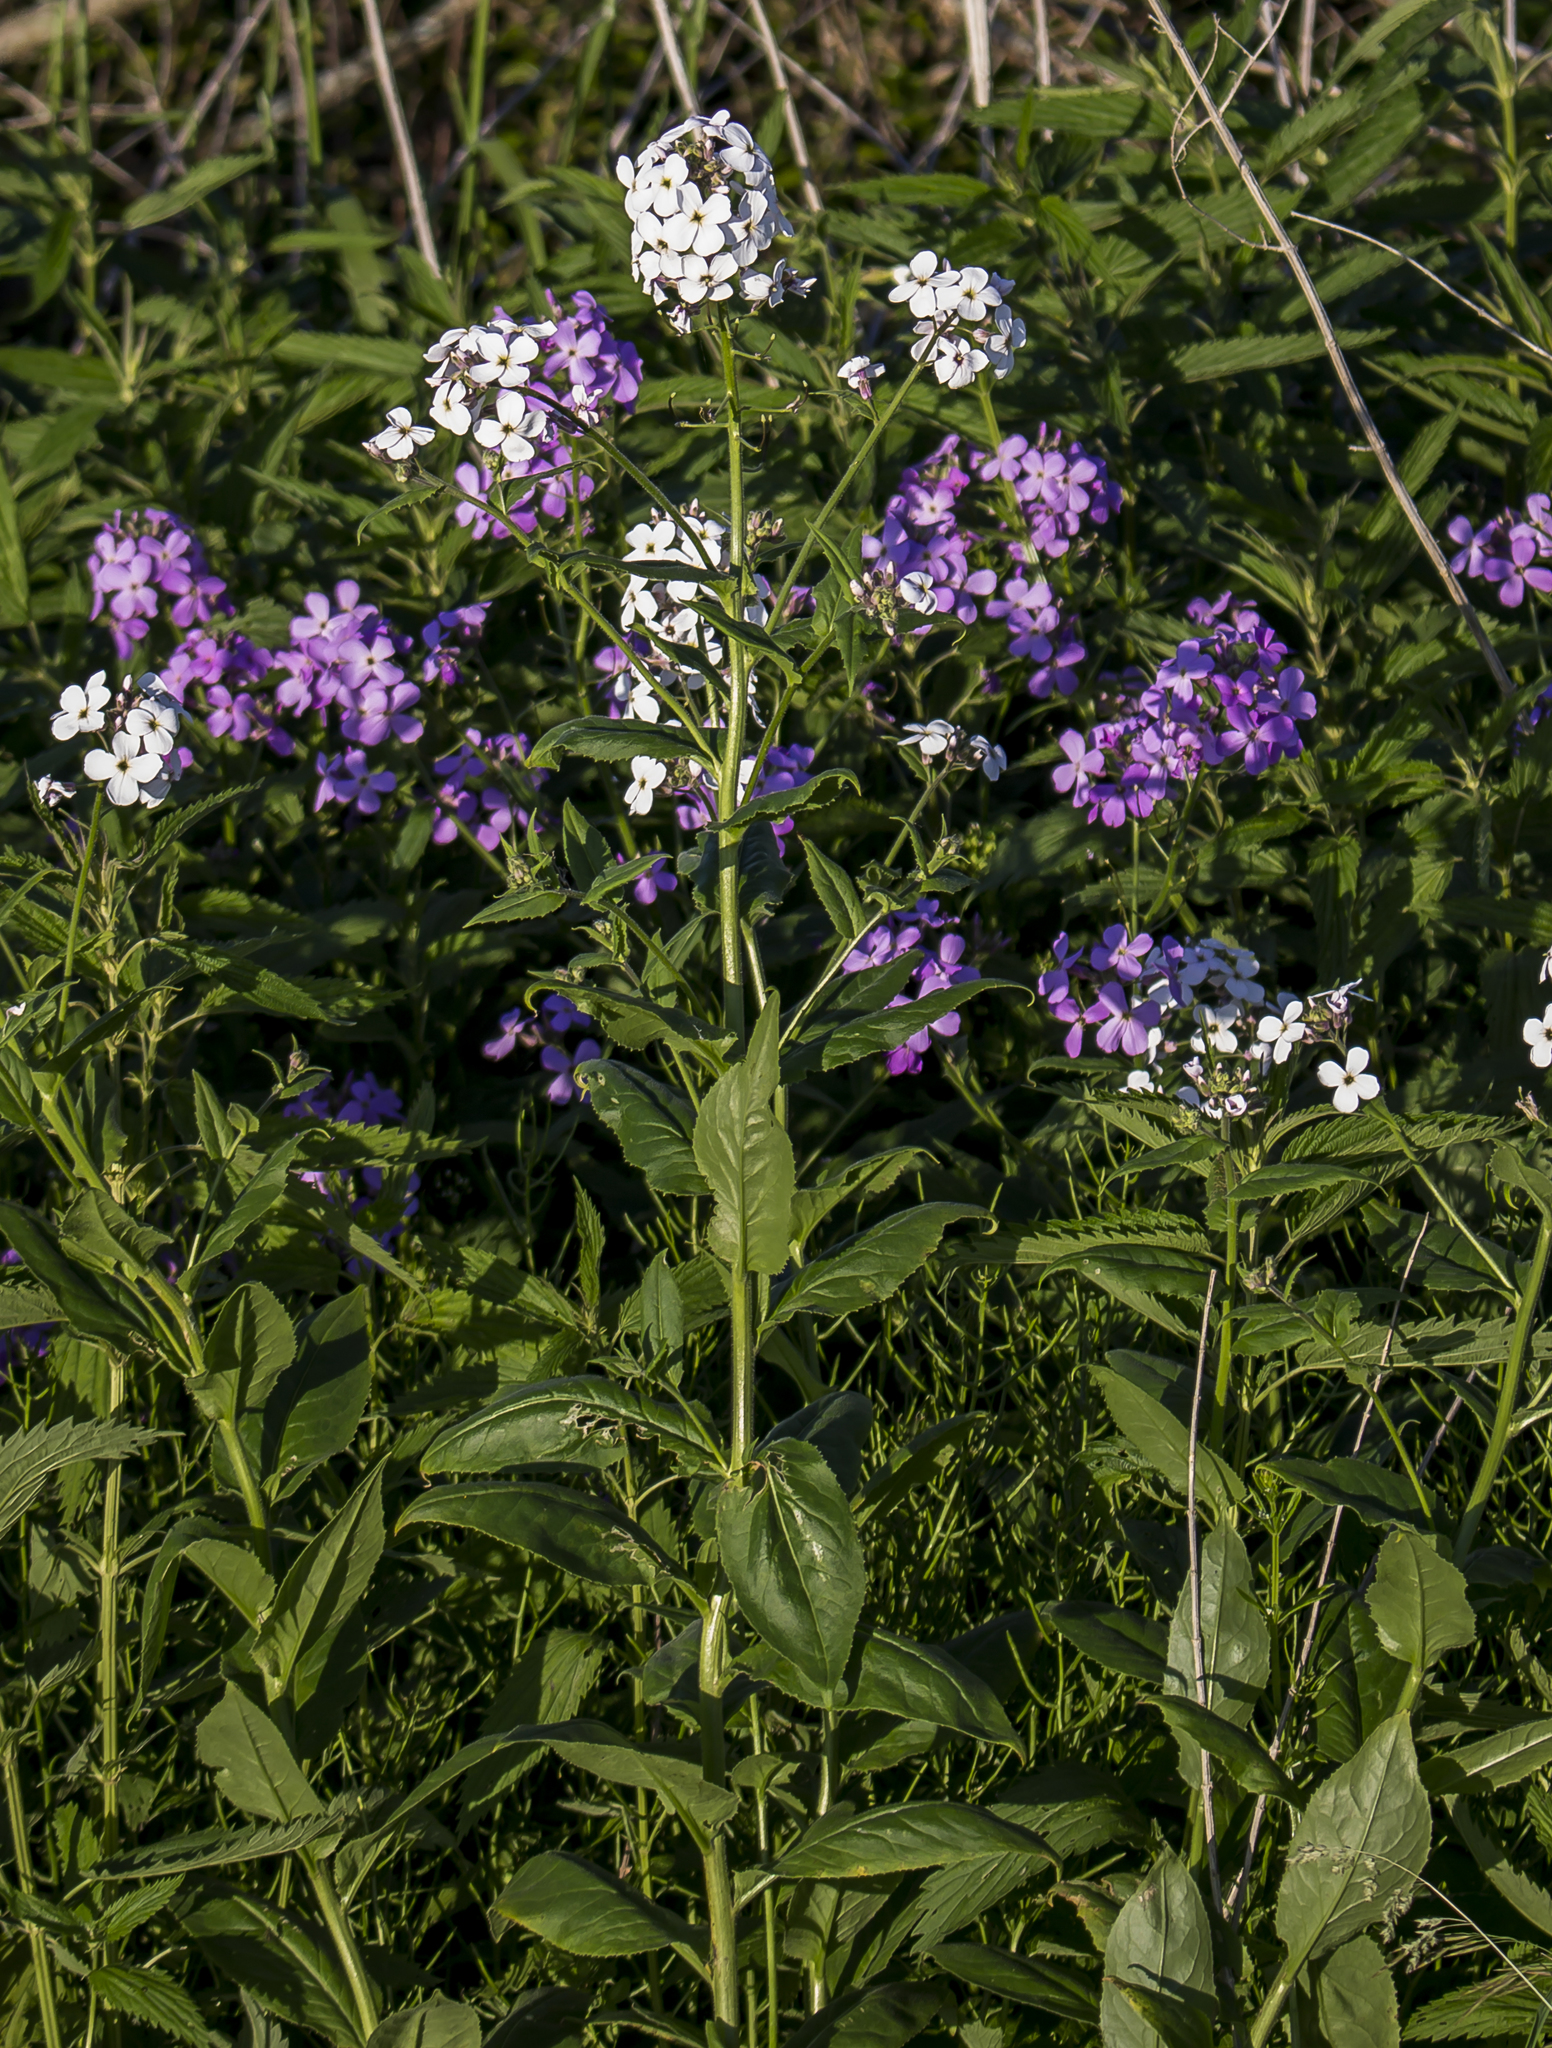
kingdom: Plantae
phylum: Tracheophyta
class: Magnoliopsida
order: Brassicales
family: Brassicaceae
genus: Hesperis
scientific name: Hesperis matronalis
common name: Dame's-violet
